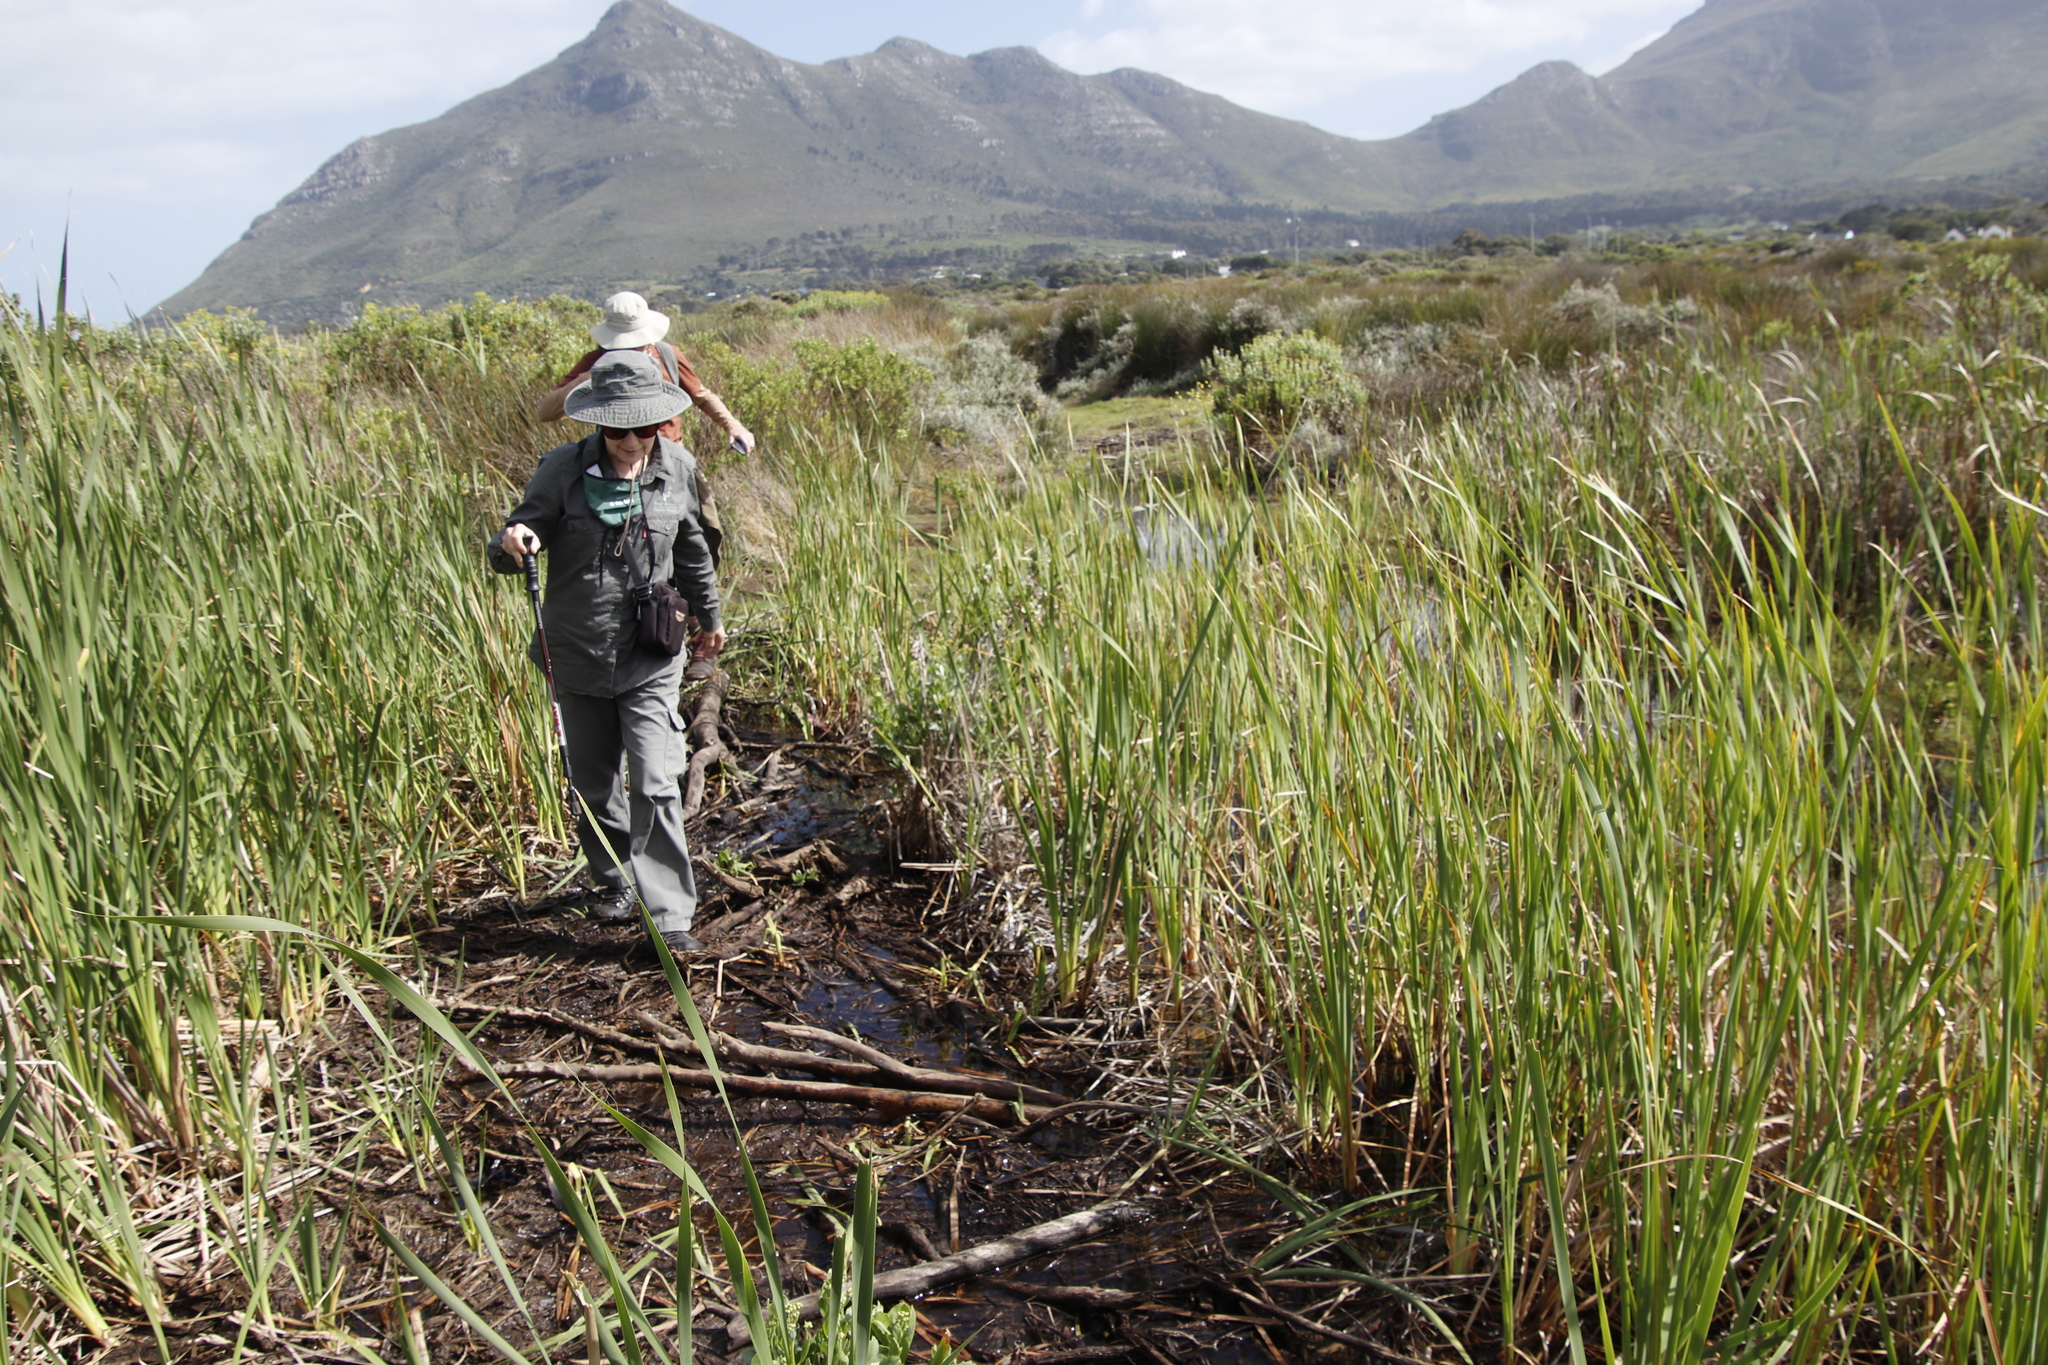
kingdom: Plantae
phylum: Tracheophyta
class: Liliopsida
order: Poales
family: Typhaceae
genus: Typha
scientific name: Typha capensis
